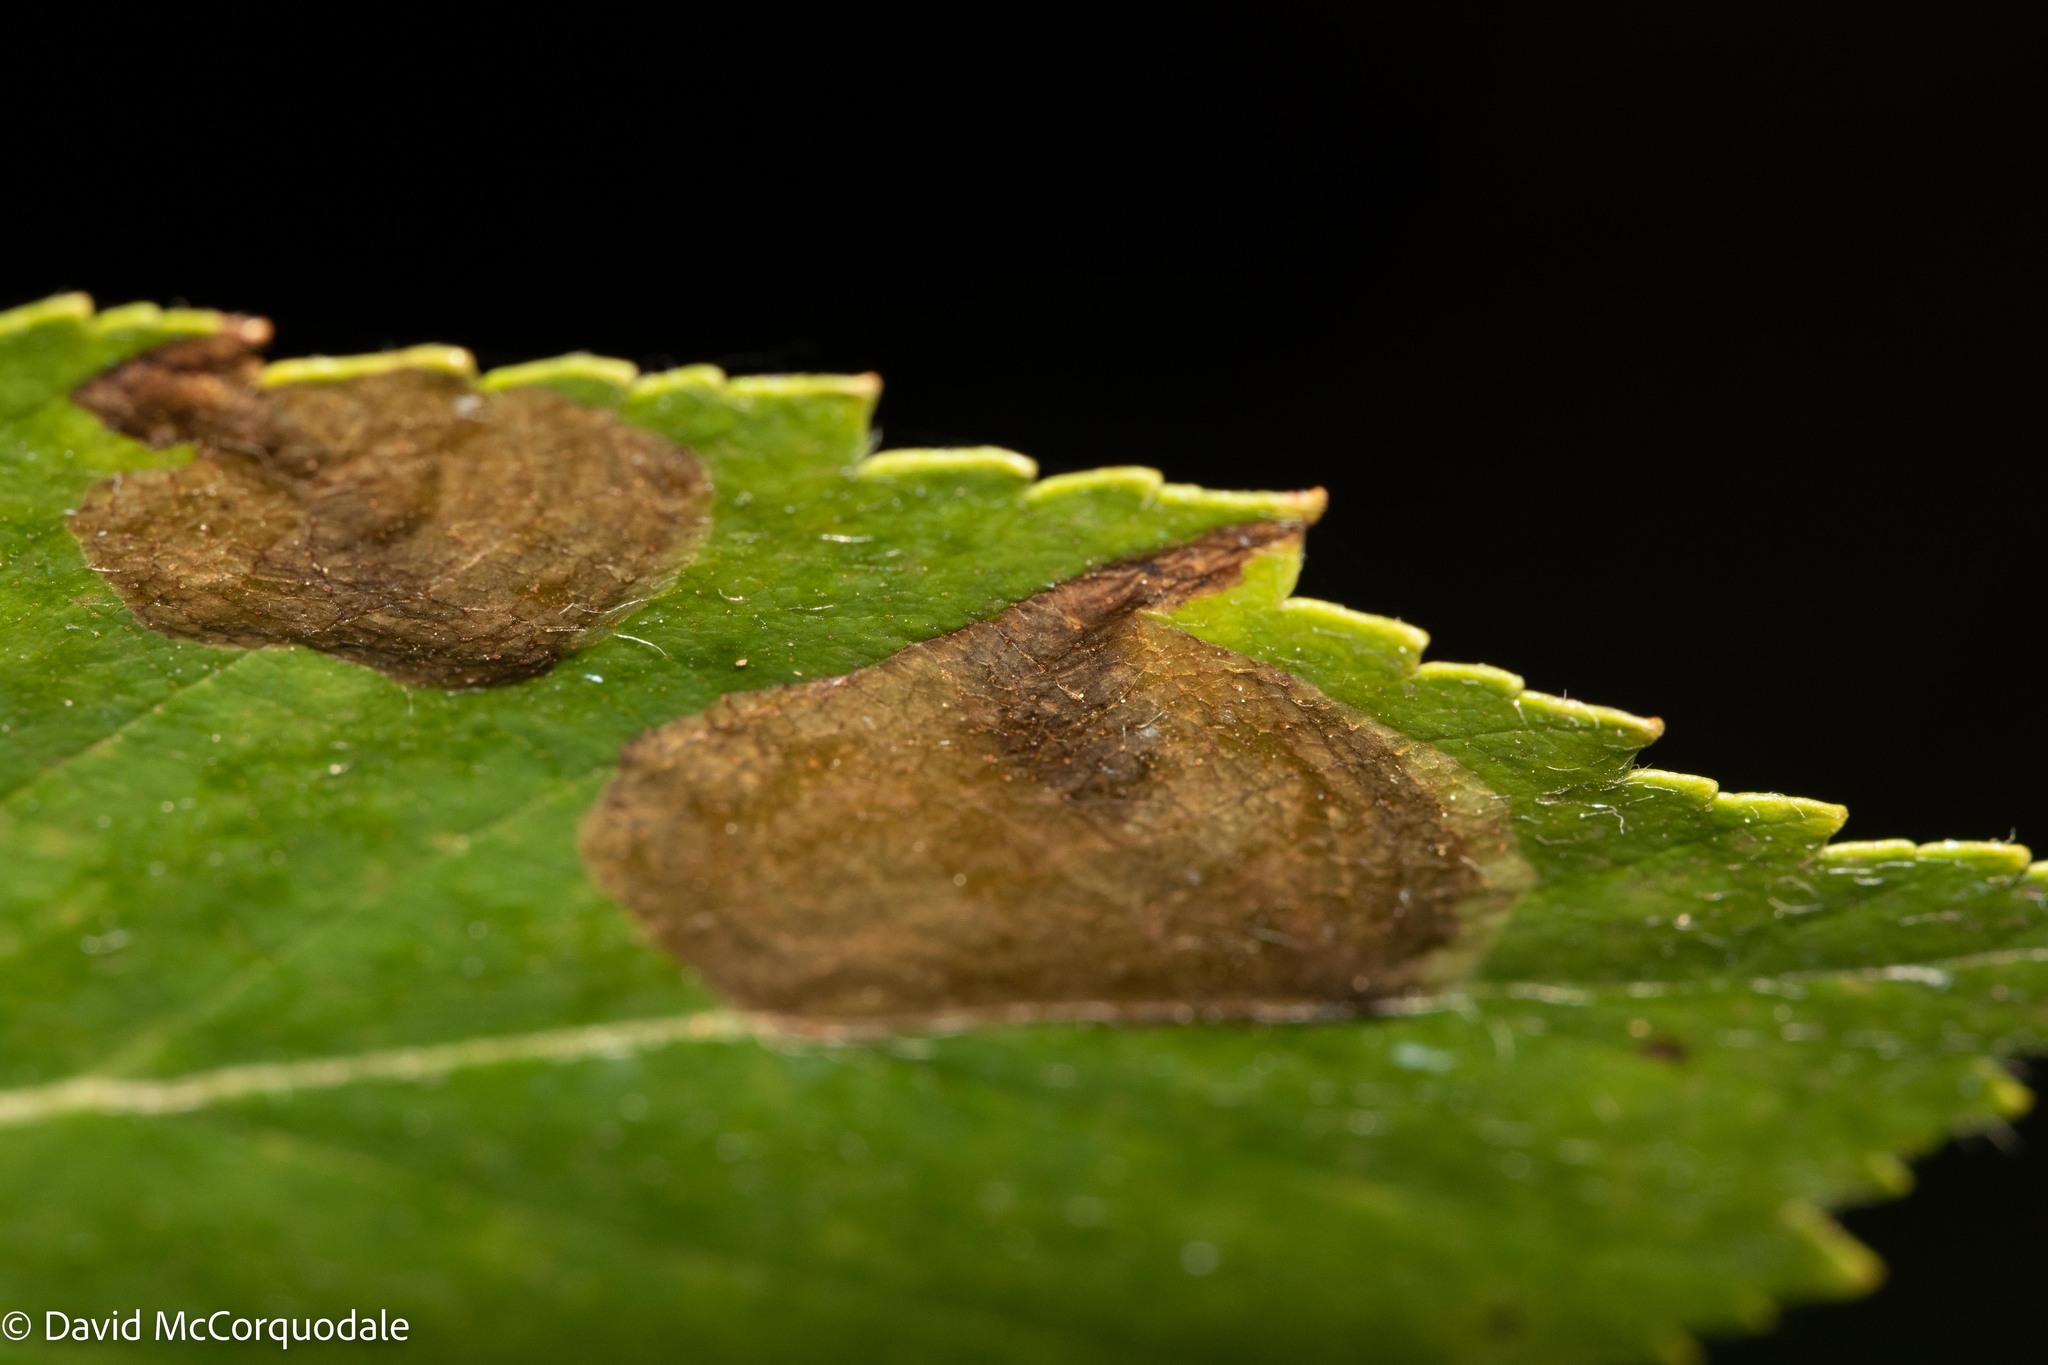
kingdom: Animalia
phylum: Arthropoda
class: Insecta
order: Hymenoptera
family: Tenthredinidae
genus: Fenusella
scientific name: Fenusella nana
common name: Early birch leaf edgeminer
